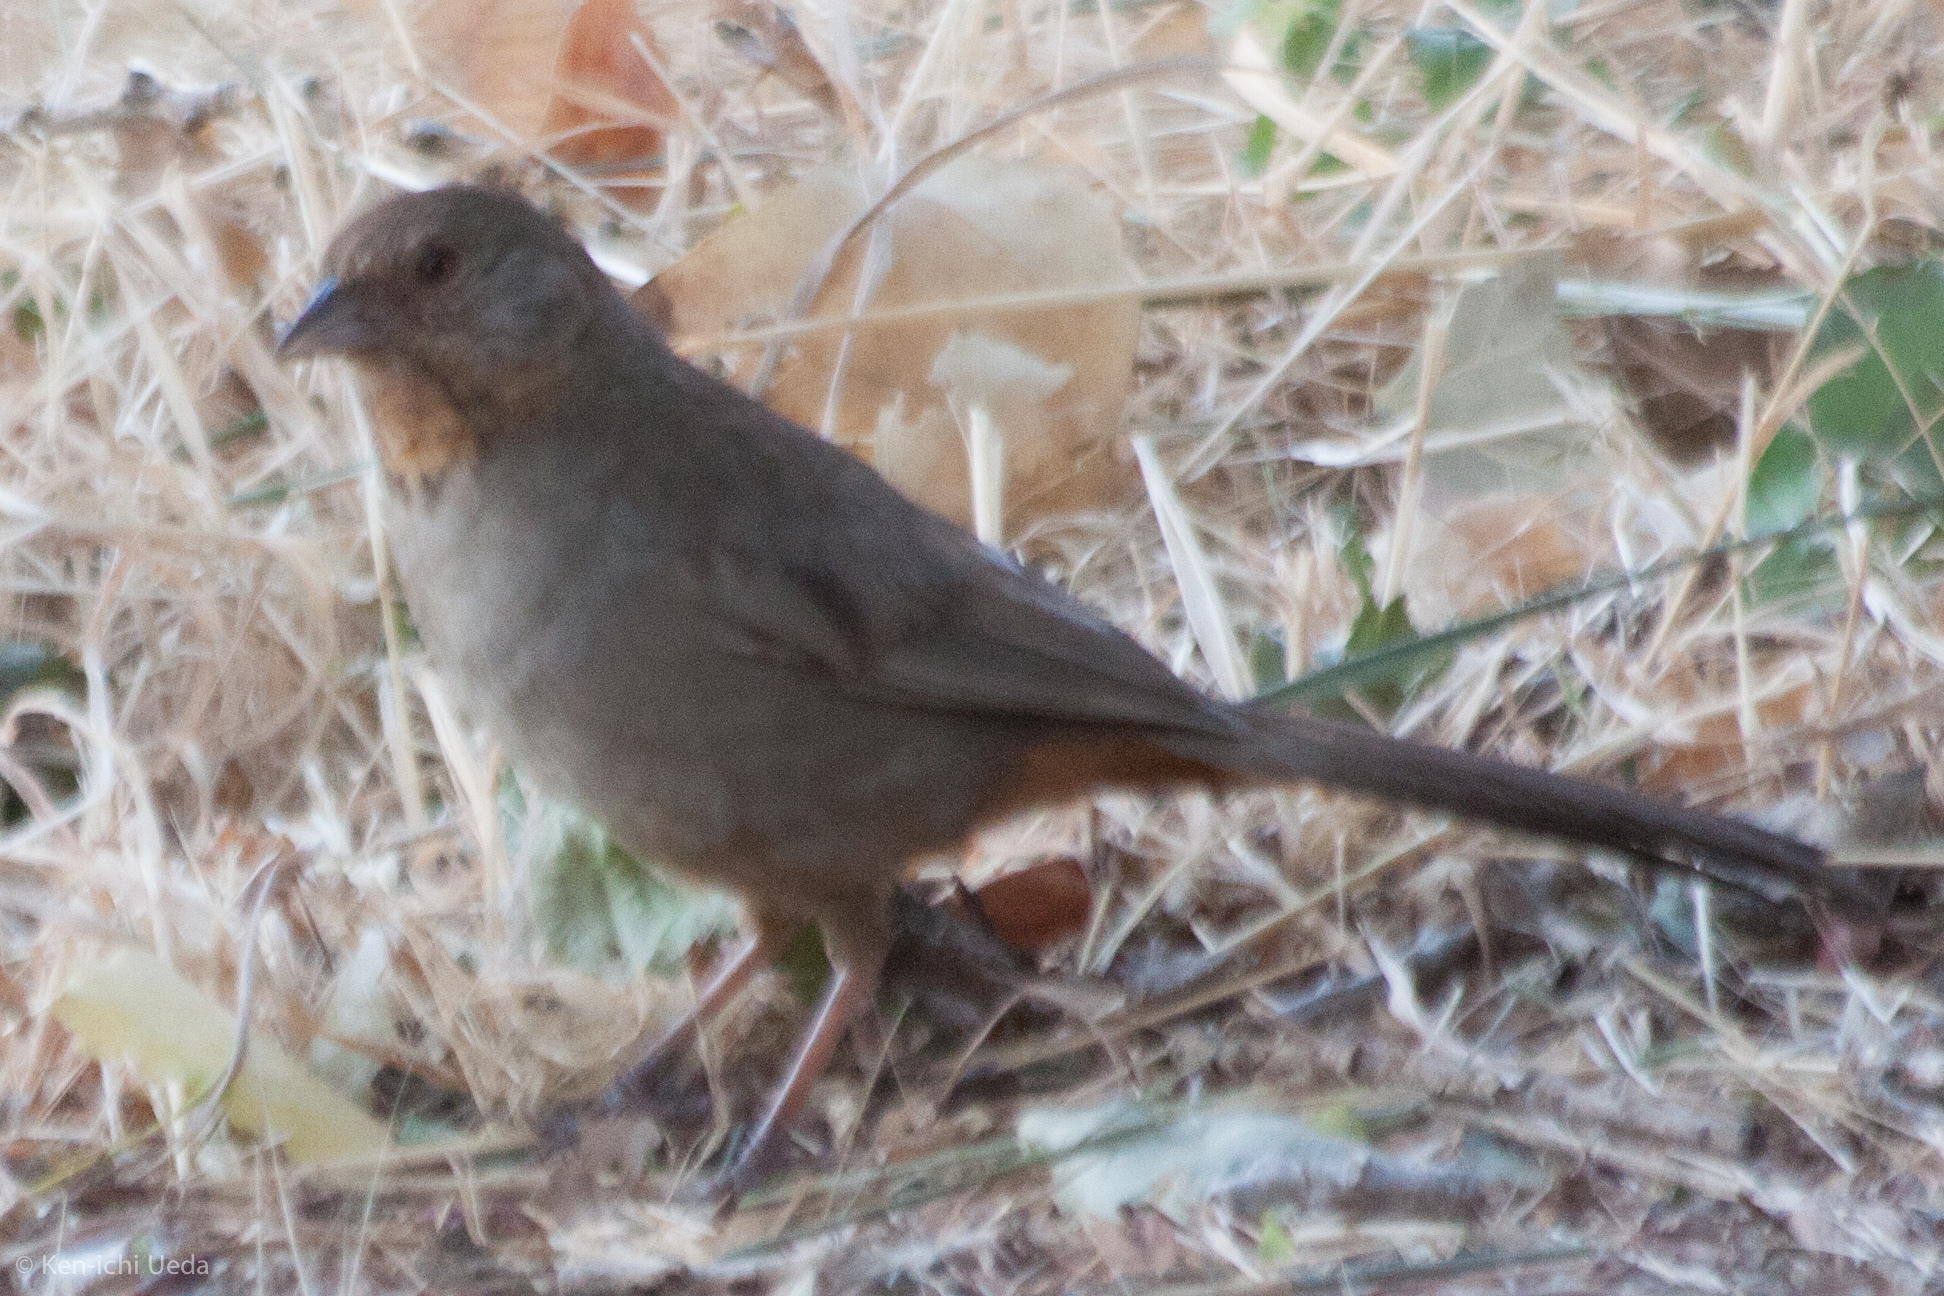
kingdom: Animalia
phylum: Chordata
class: Aves
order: Passeriformes
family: Passerellidae
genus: Melozone
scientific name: Melozone crissalis
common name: California towhee
